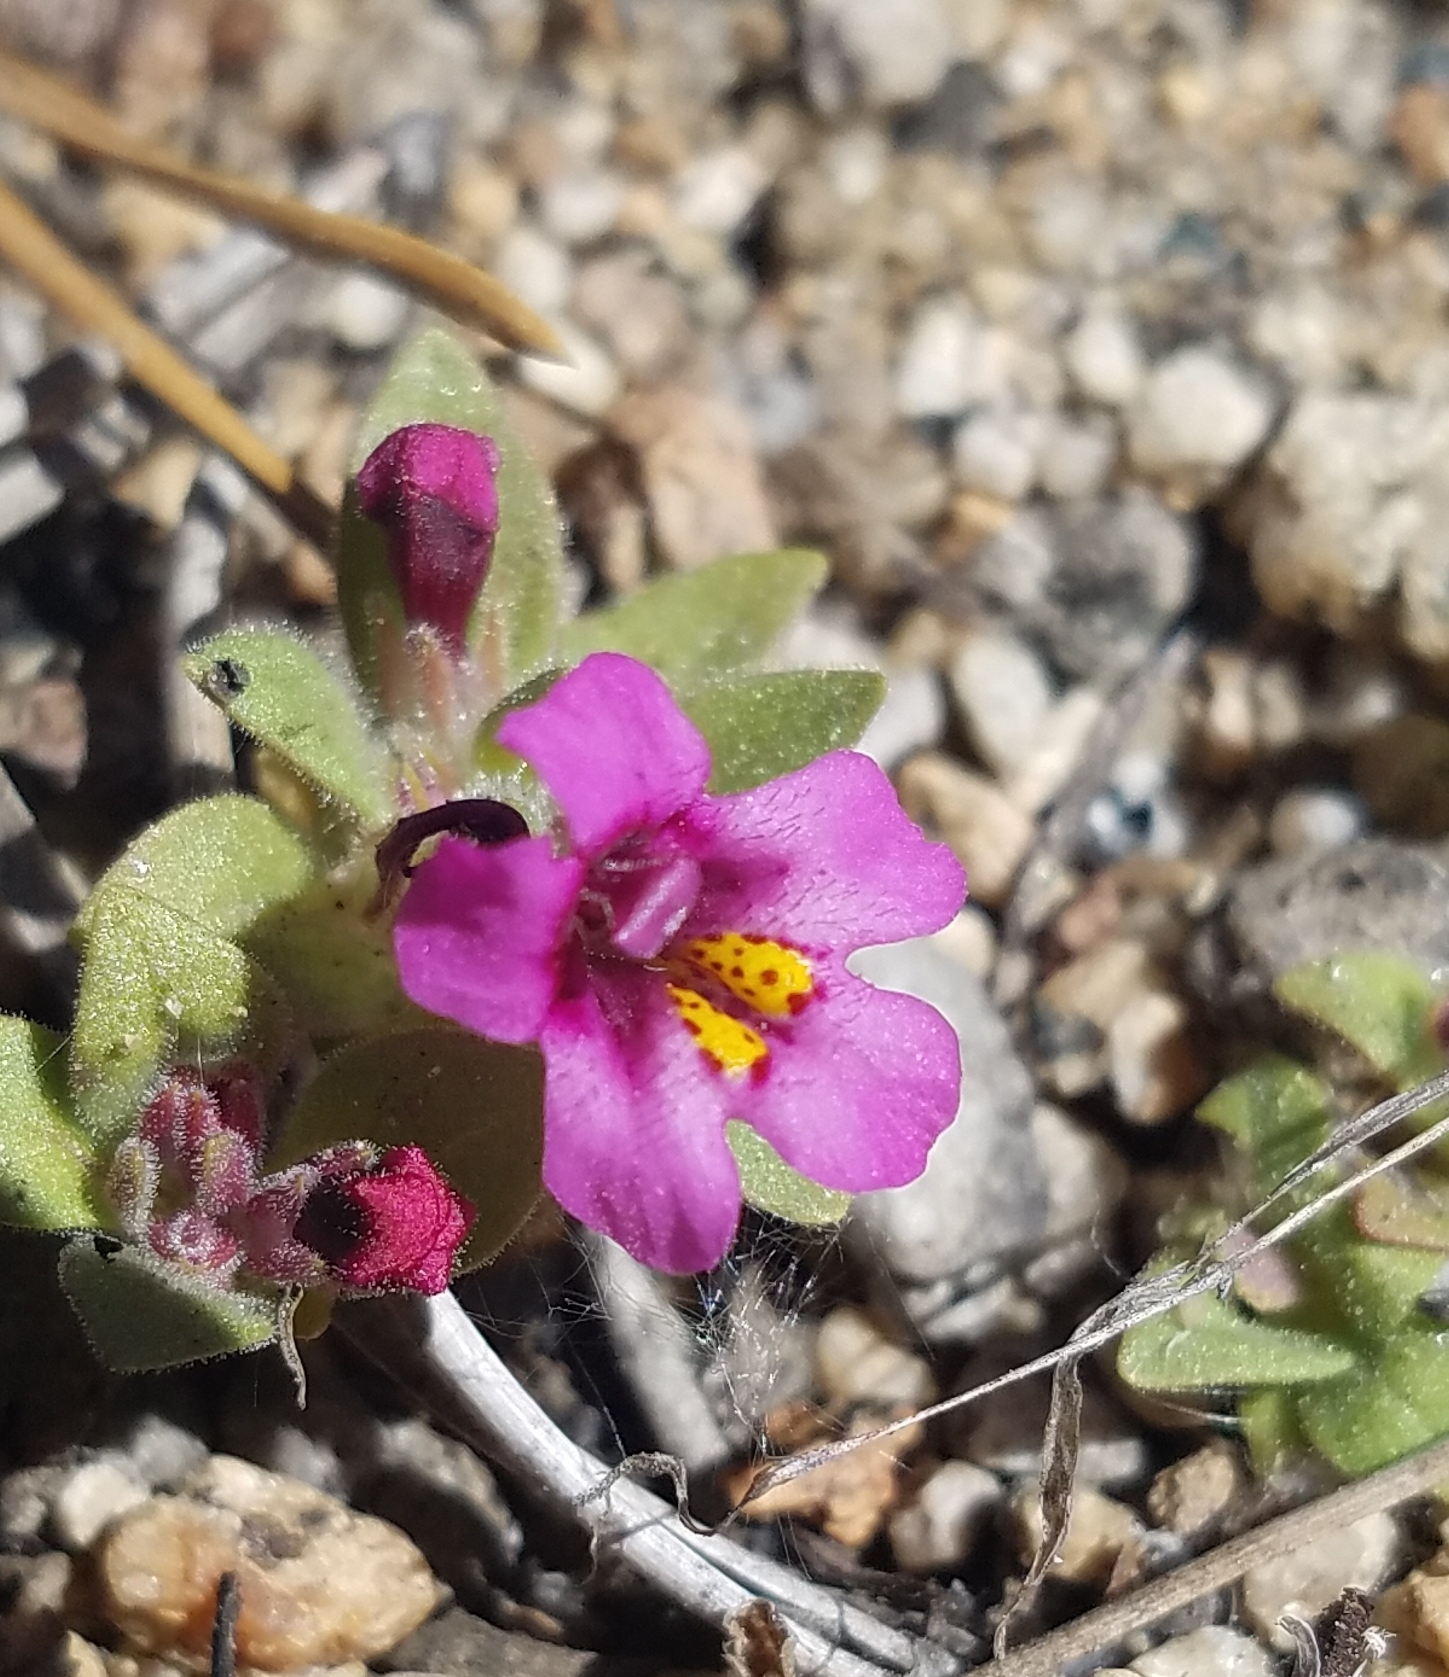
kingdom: Plantae
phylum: Tracheophyta
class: Magnoliopsida
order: Lamiales
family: Phrymaceae
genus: Diplacus
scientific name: Diplacus mephiticus
